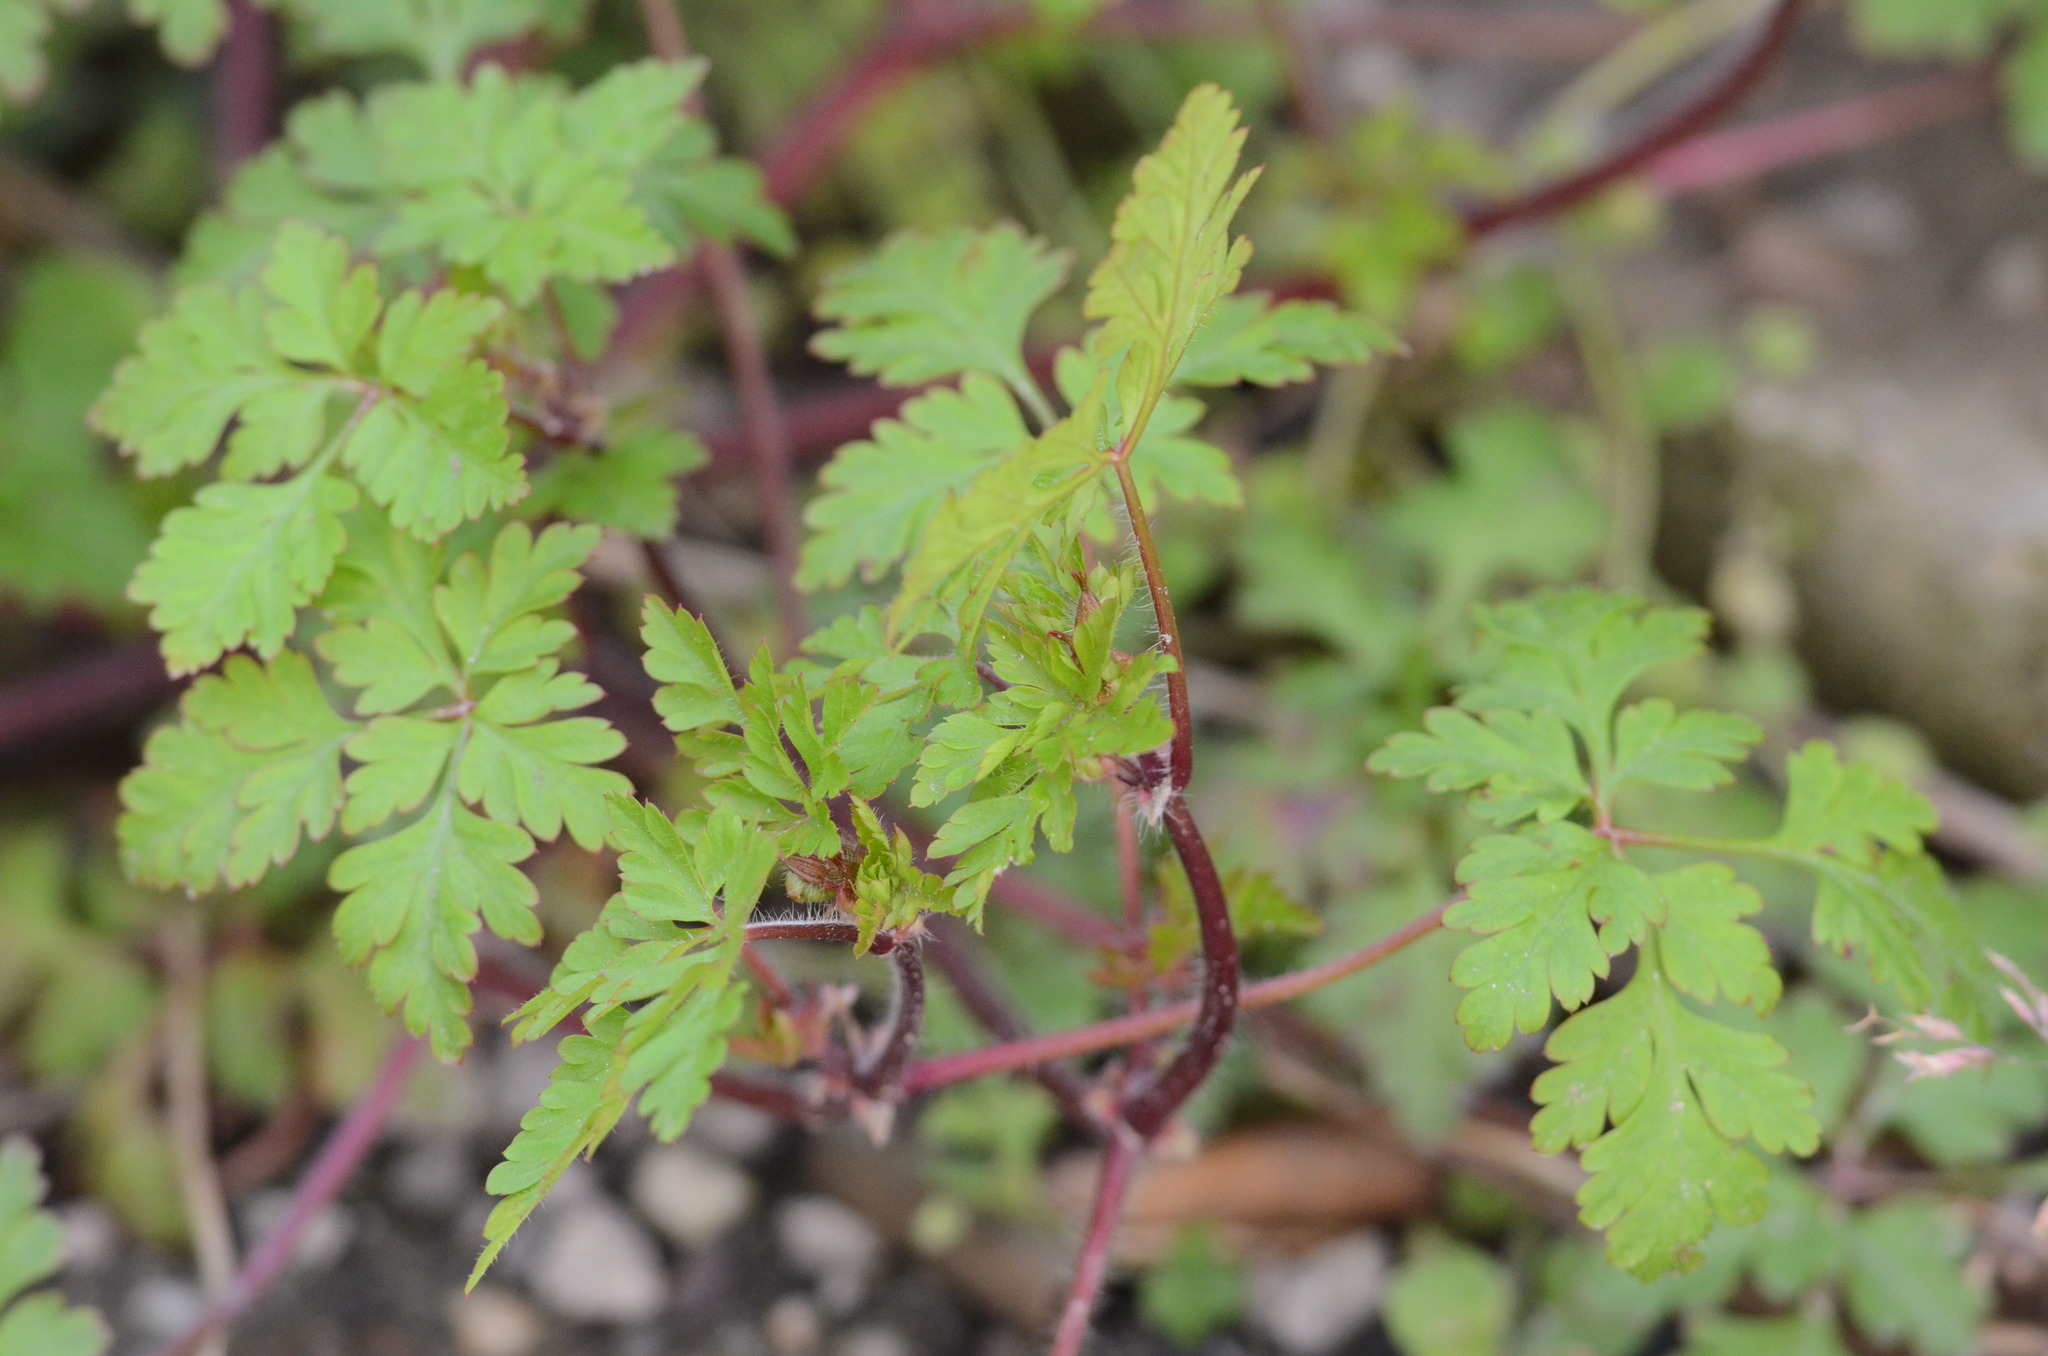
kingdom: Plantae
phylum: Tracheophyta
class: Magnoliopsida
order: Geraniales
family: Geraniaceae
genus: Geranium
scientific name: Geranium robertianum
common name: Herb-robert
